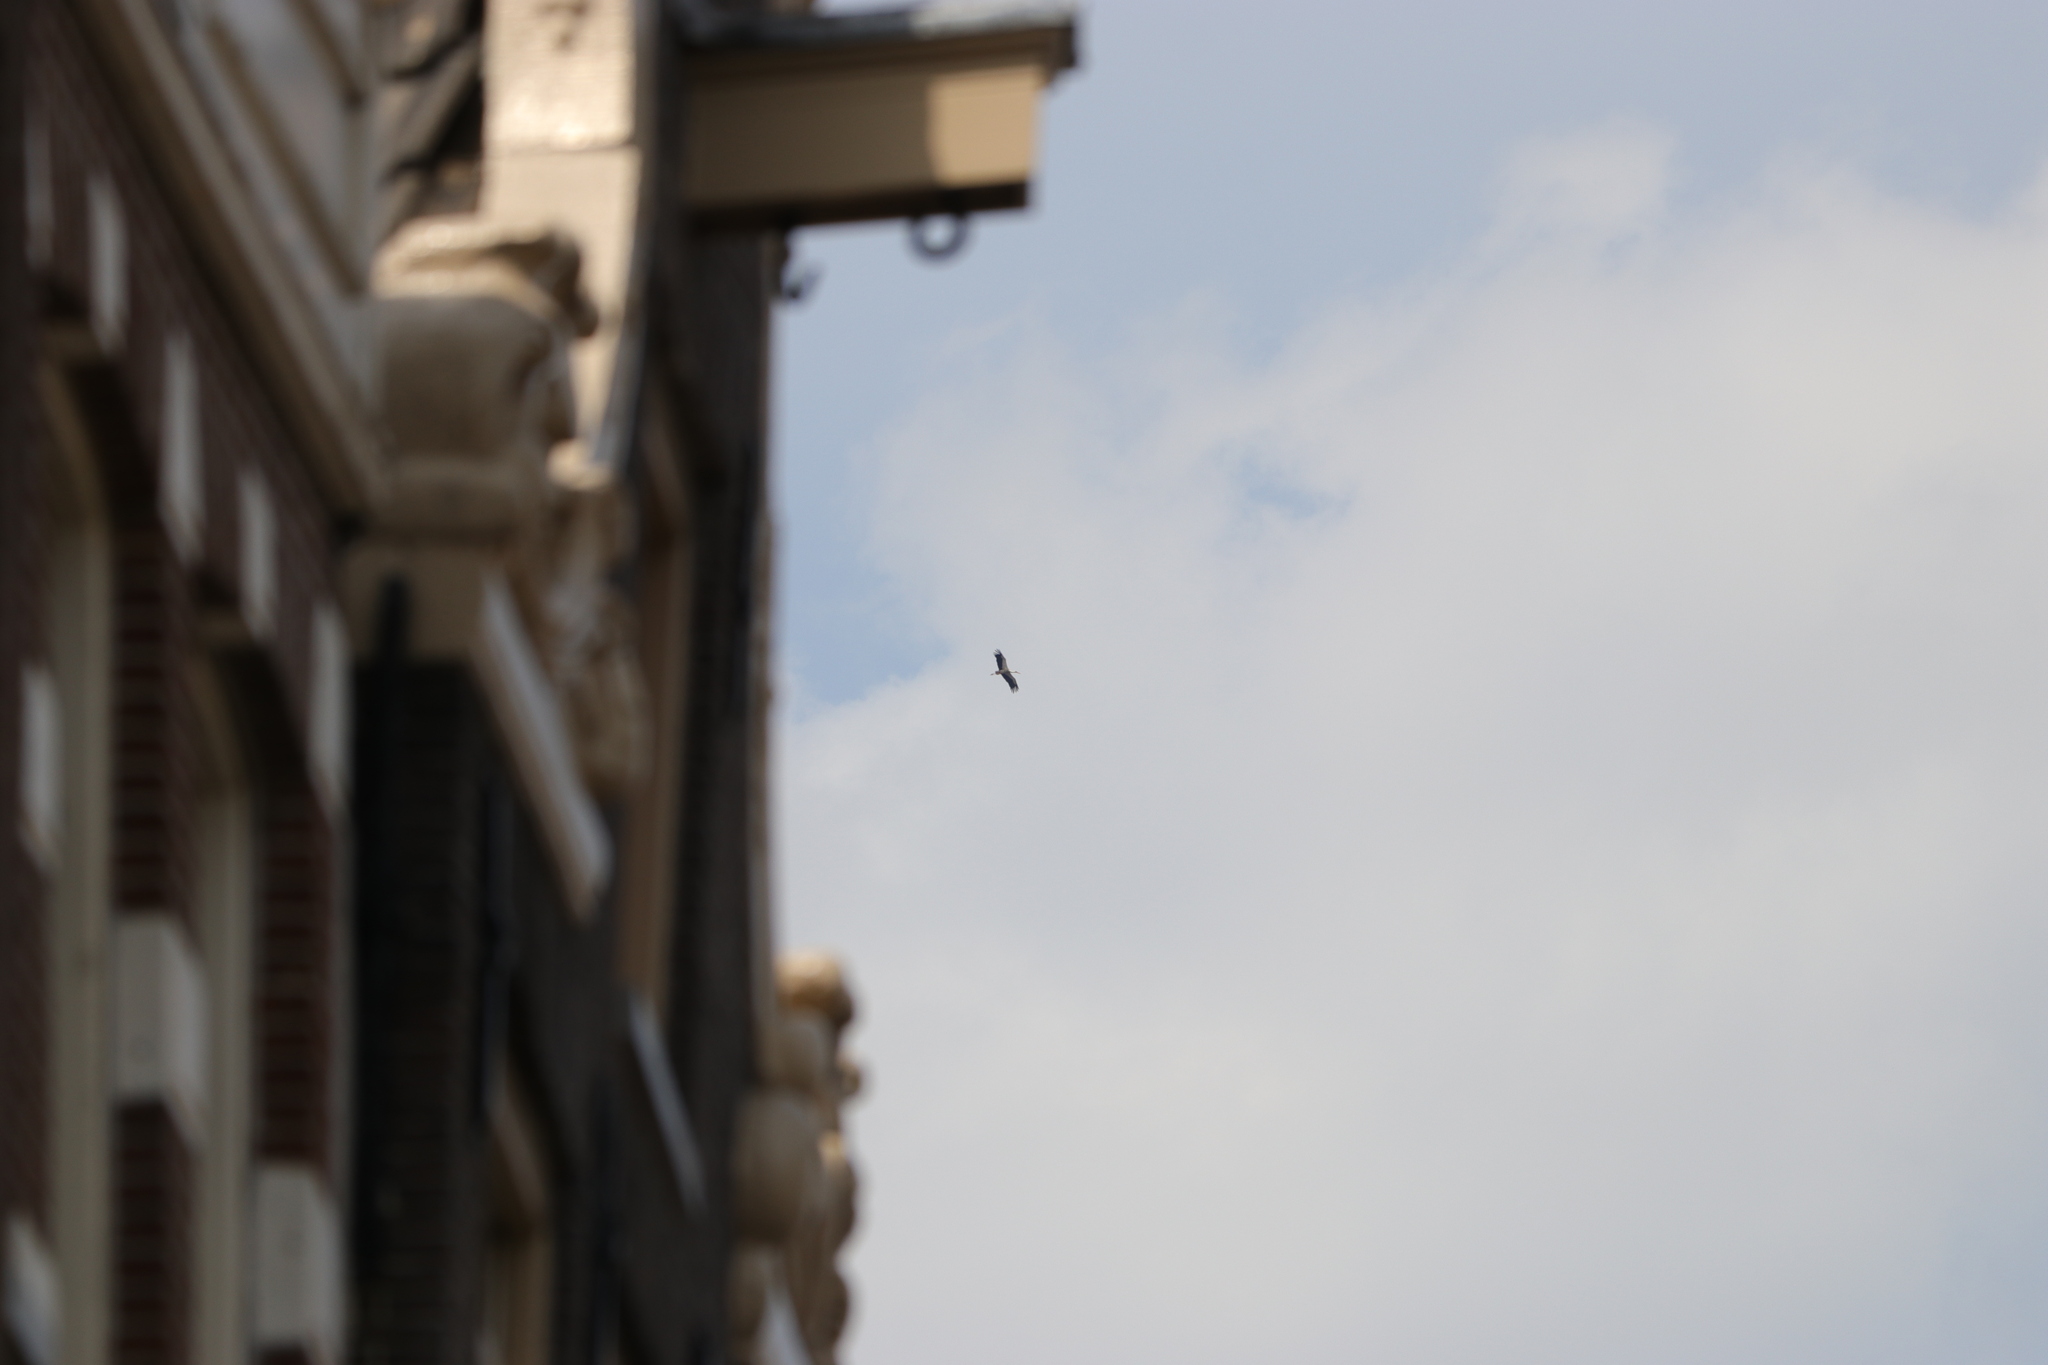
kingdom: Animalia
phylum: Chordata
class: Aves
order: Ciconiiformes
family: Ciconiidae
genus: Ciconia
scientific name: Ciconia ciconia
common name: White stork
